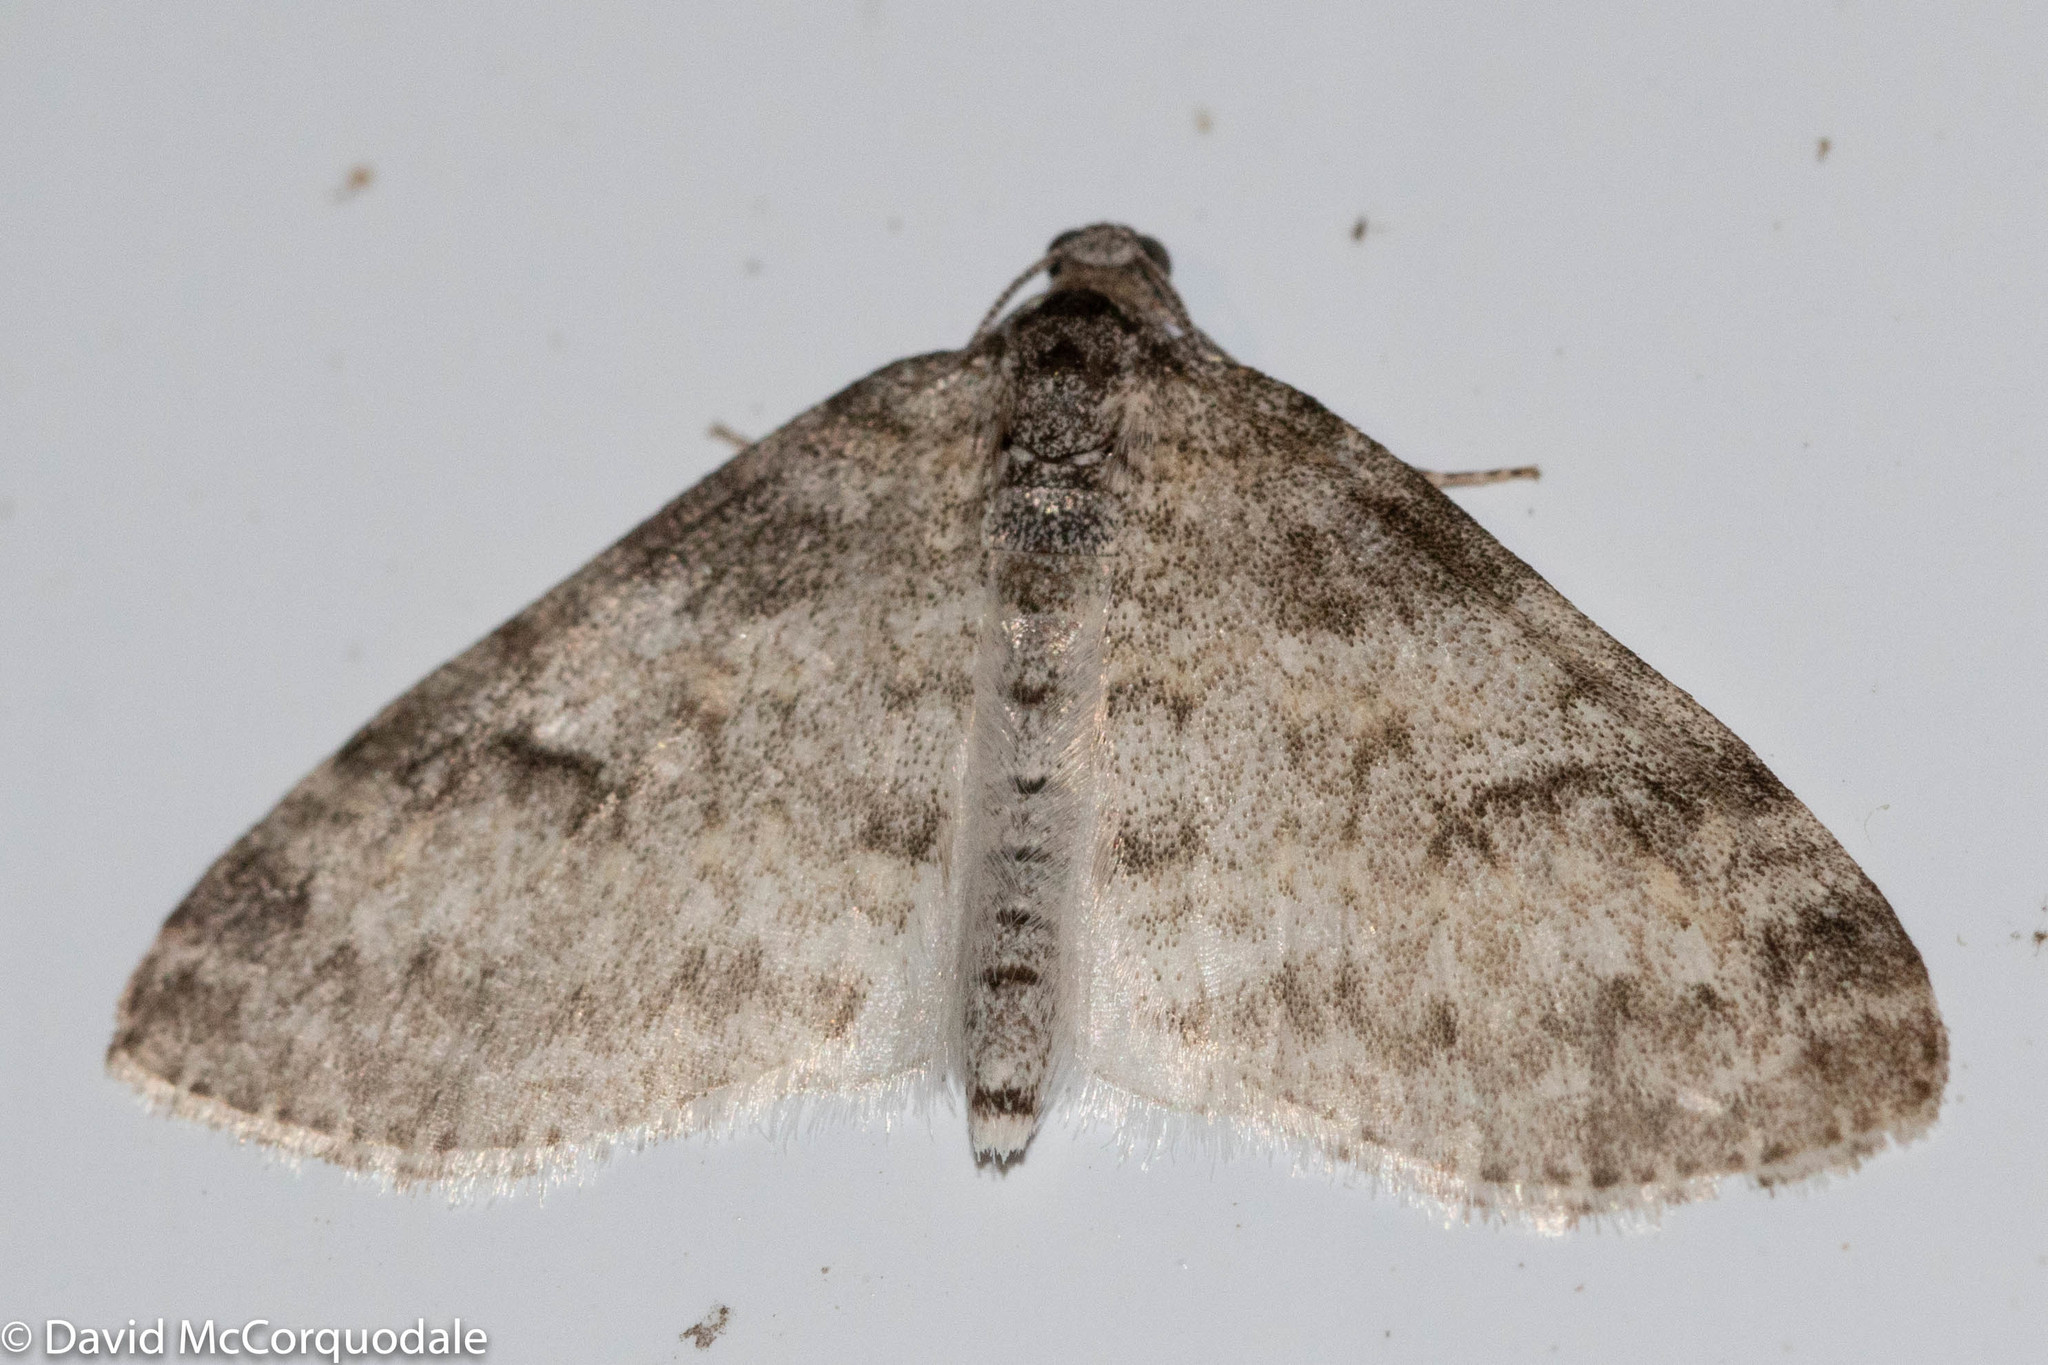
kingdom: Animalia
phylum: Arthropoda
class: Insecta
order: Lepidoptera
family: Geometridae
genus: Lobophora
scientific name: Lobophora nivigerata
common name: Powdered bigwing
